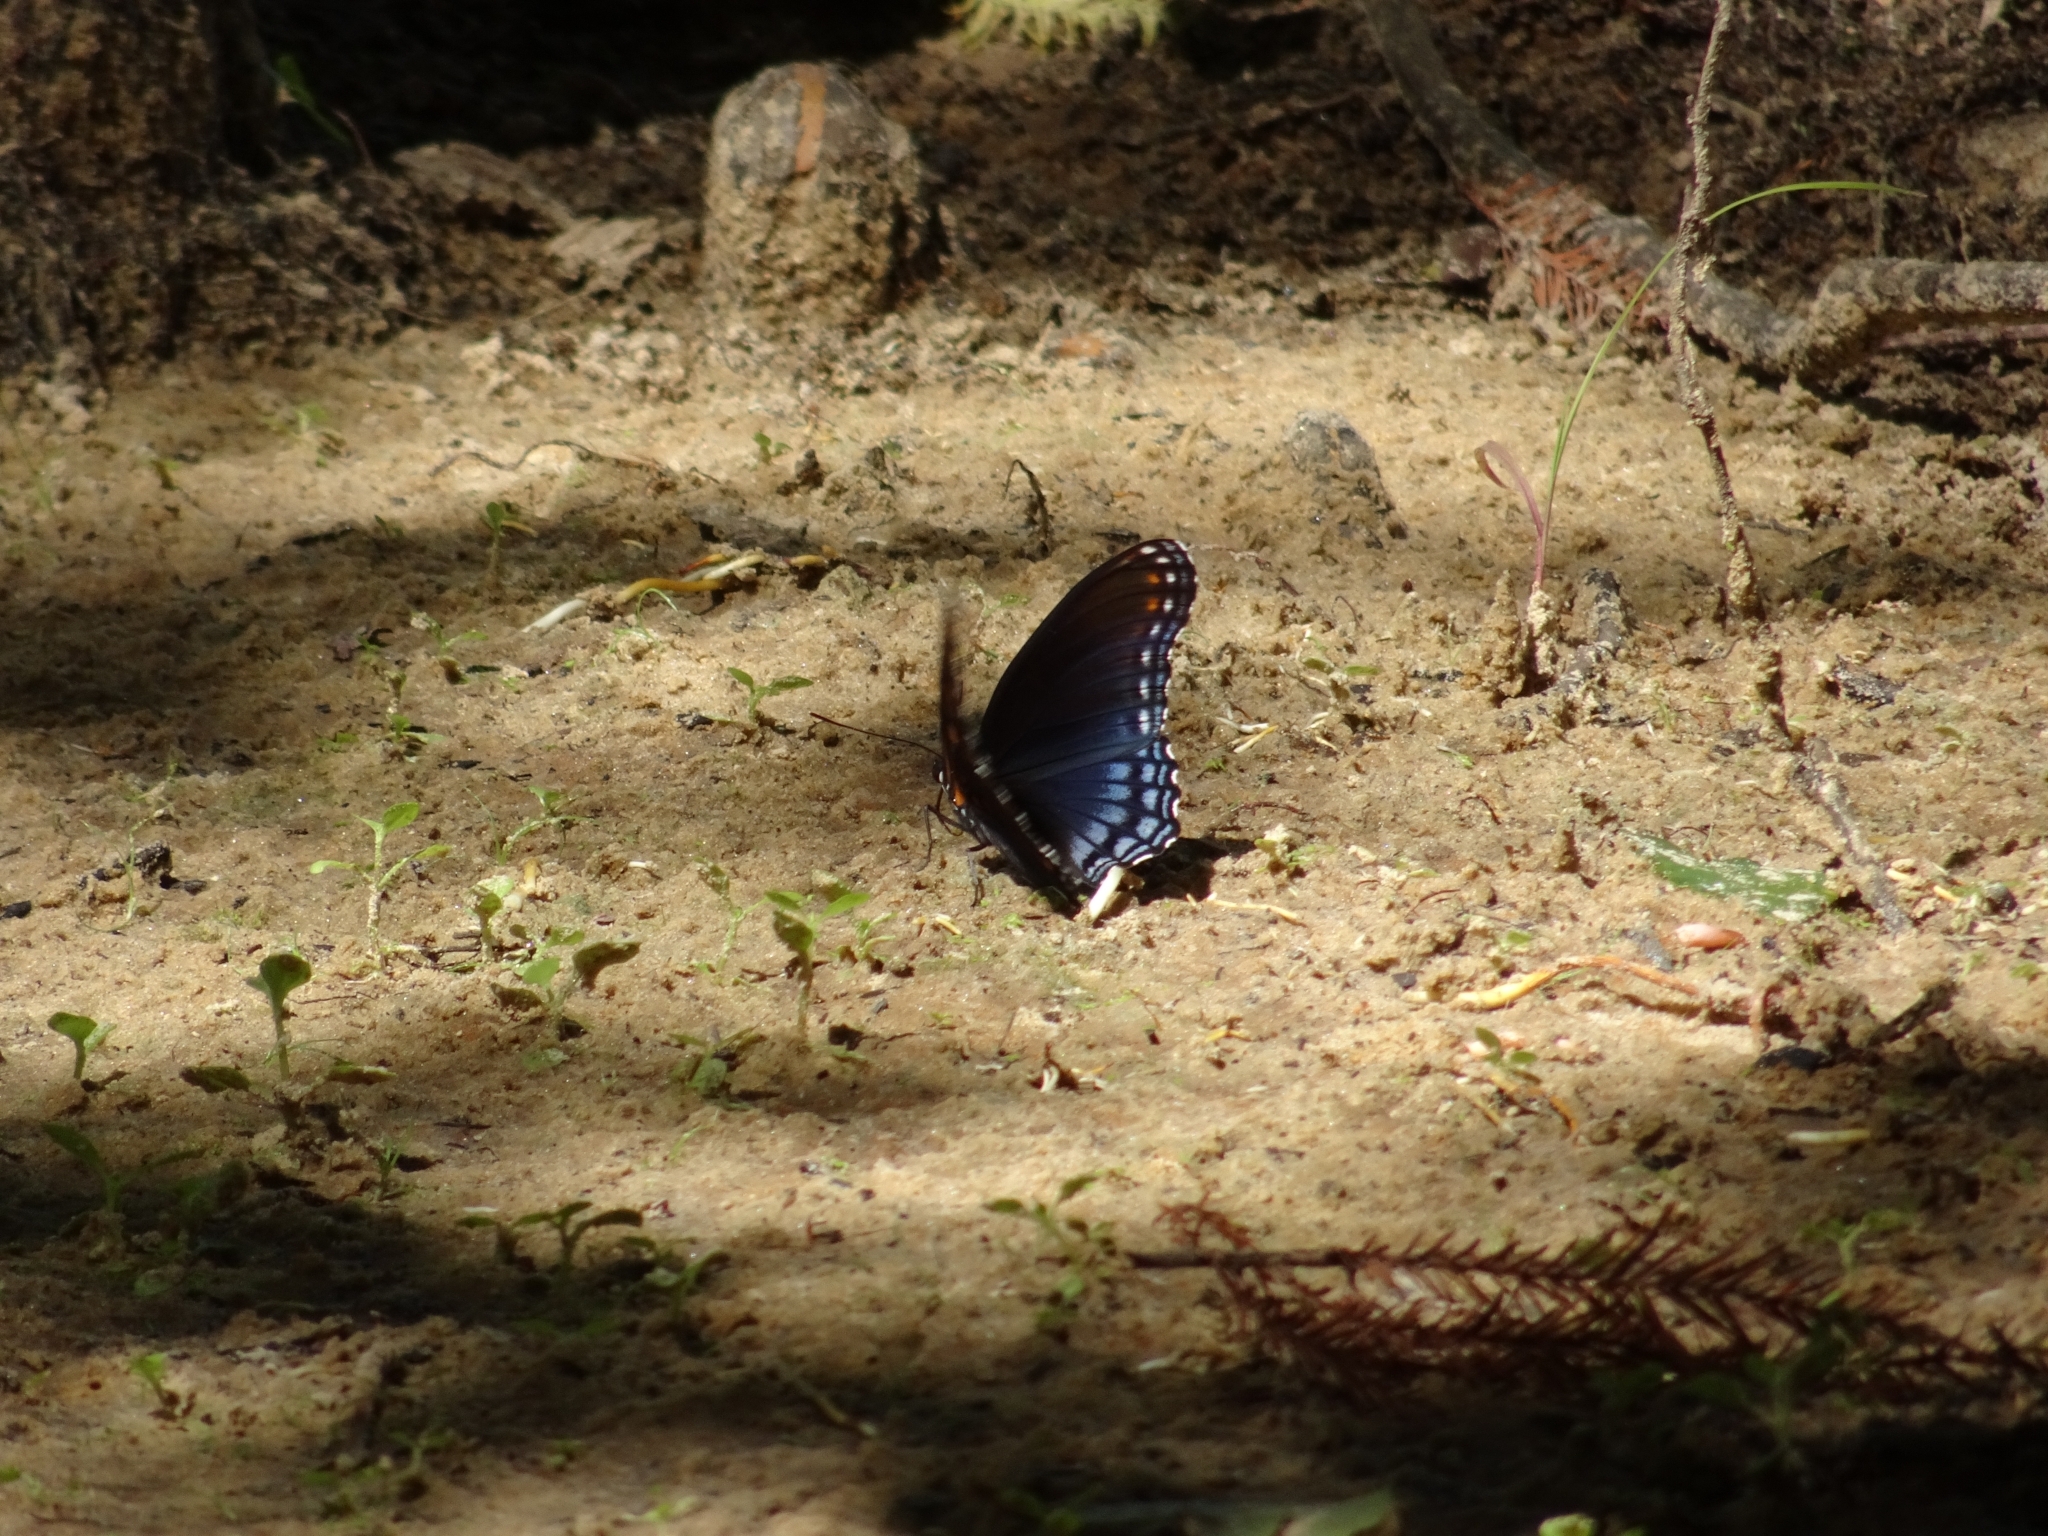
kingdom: Animalia
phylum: Arthropoda
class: Insecta
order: Lepidoptera
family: Nymphalidae
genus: Limenitis
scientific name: Limenitis arthemis
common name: Red-spotted admiral
